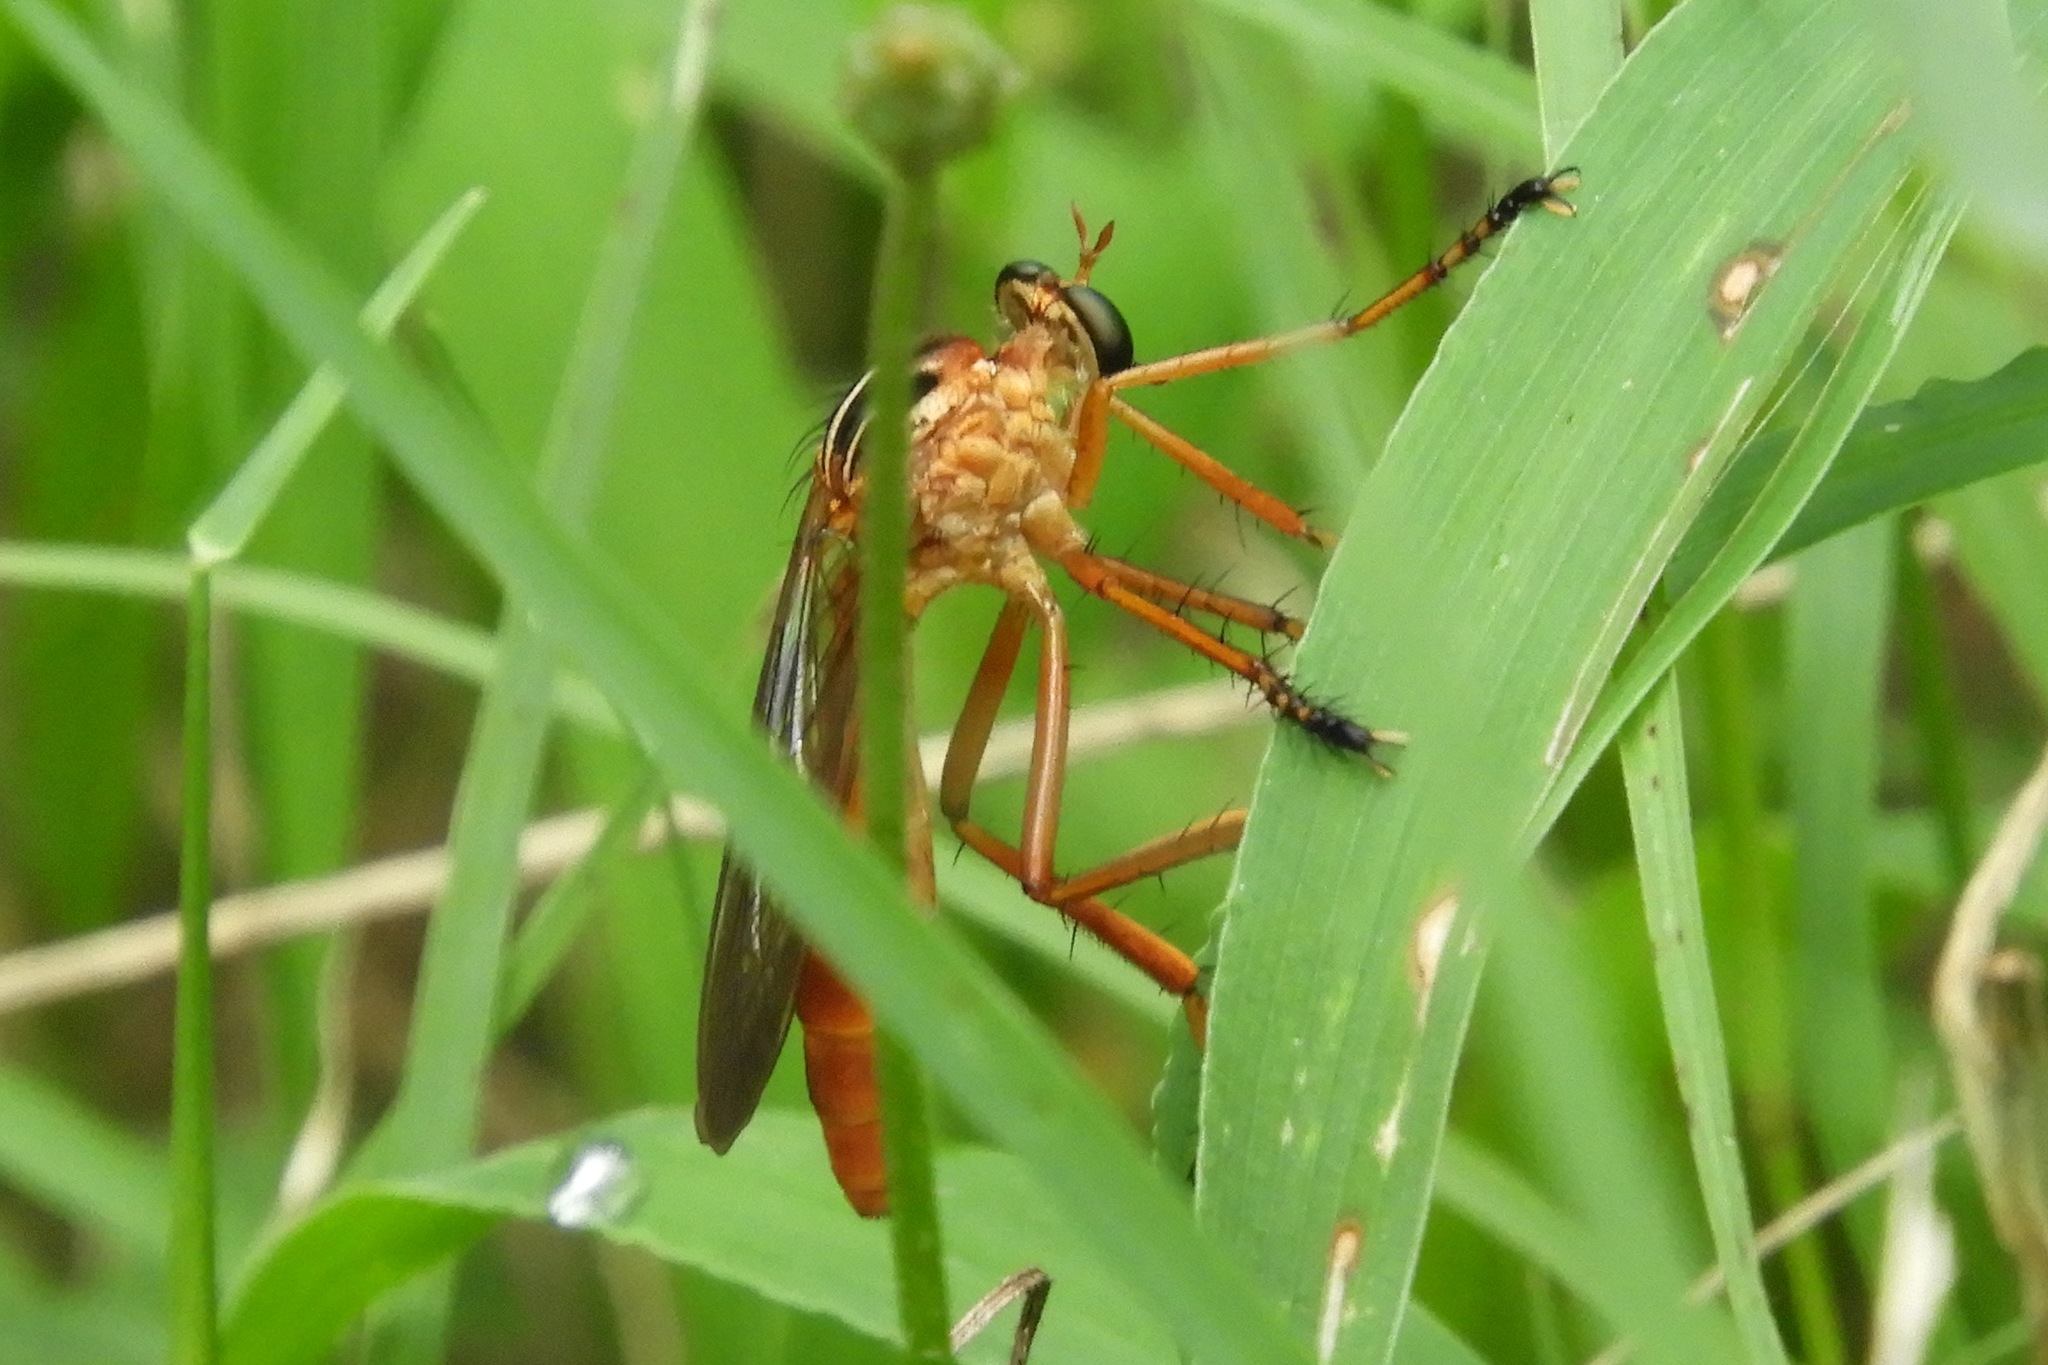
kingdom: Animalia
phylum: Arthropoda
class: Insecta
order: Diptera
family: Asilidae
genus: Diogmites
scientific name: Diogmites neoternatus
